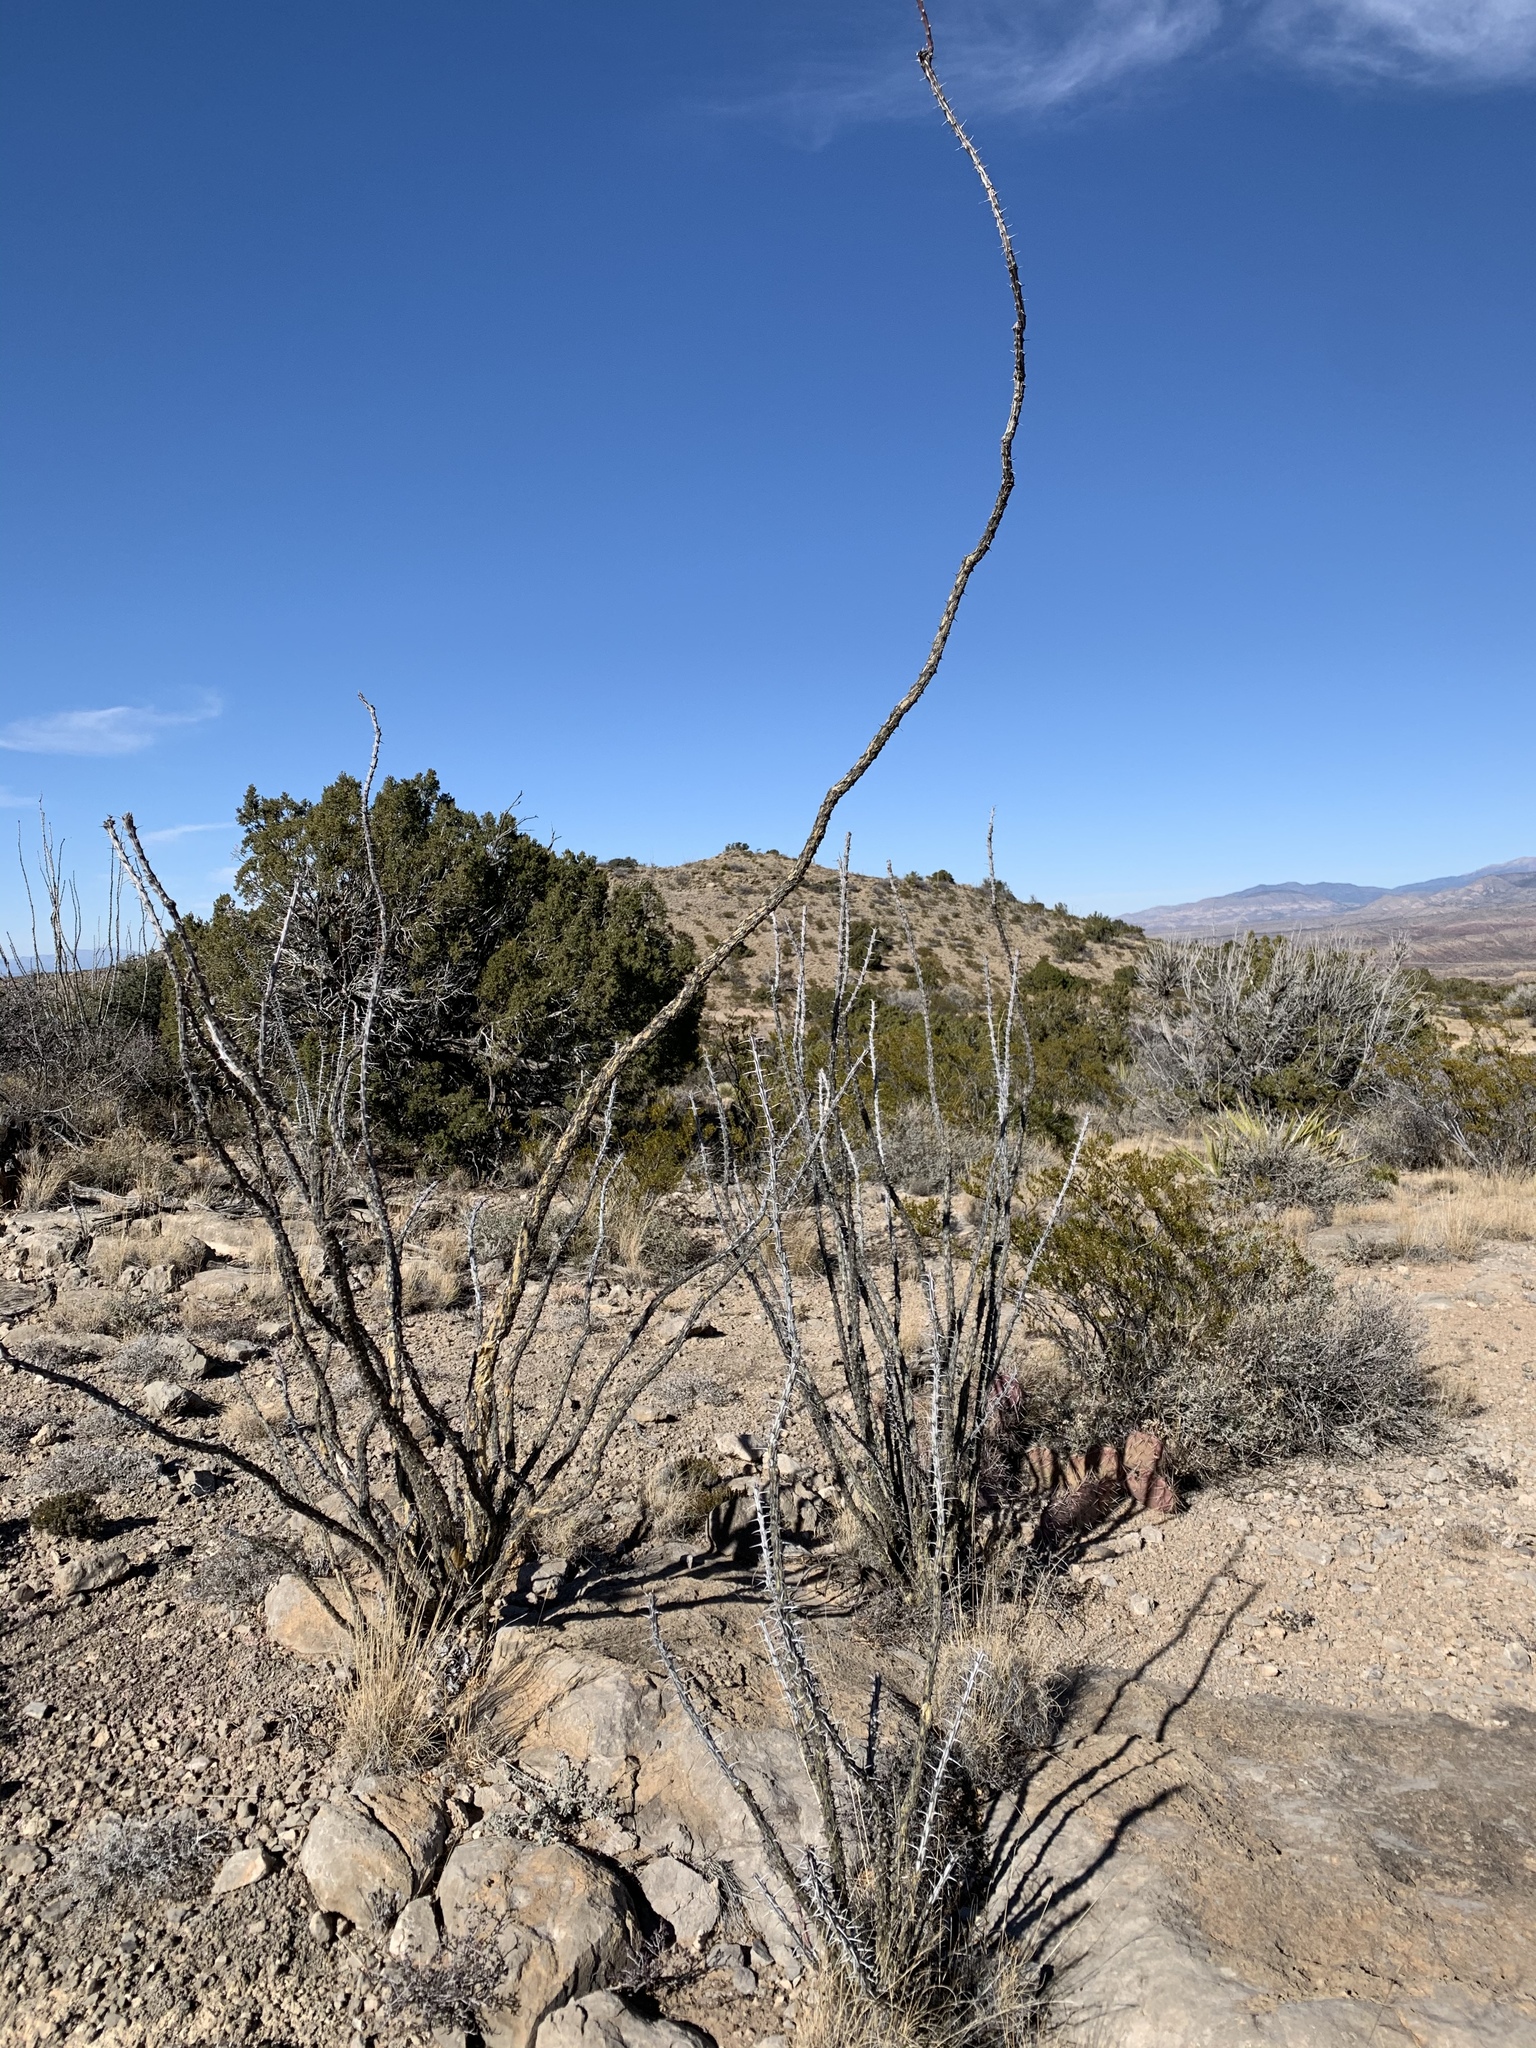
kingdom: Plantae
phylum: Tracheophyta
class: Magnoliopsida
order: Ericales
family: Fouquieriaceae
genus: Fouquieria
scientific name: Fouquieria splendens
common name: Vine-cactus
